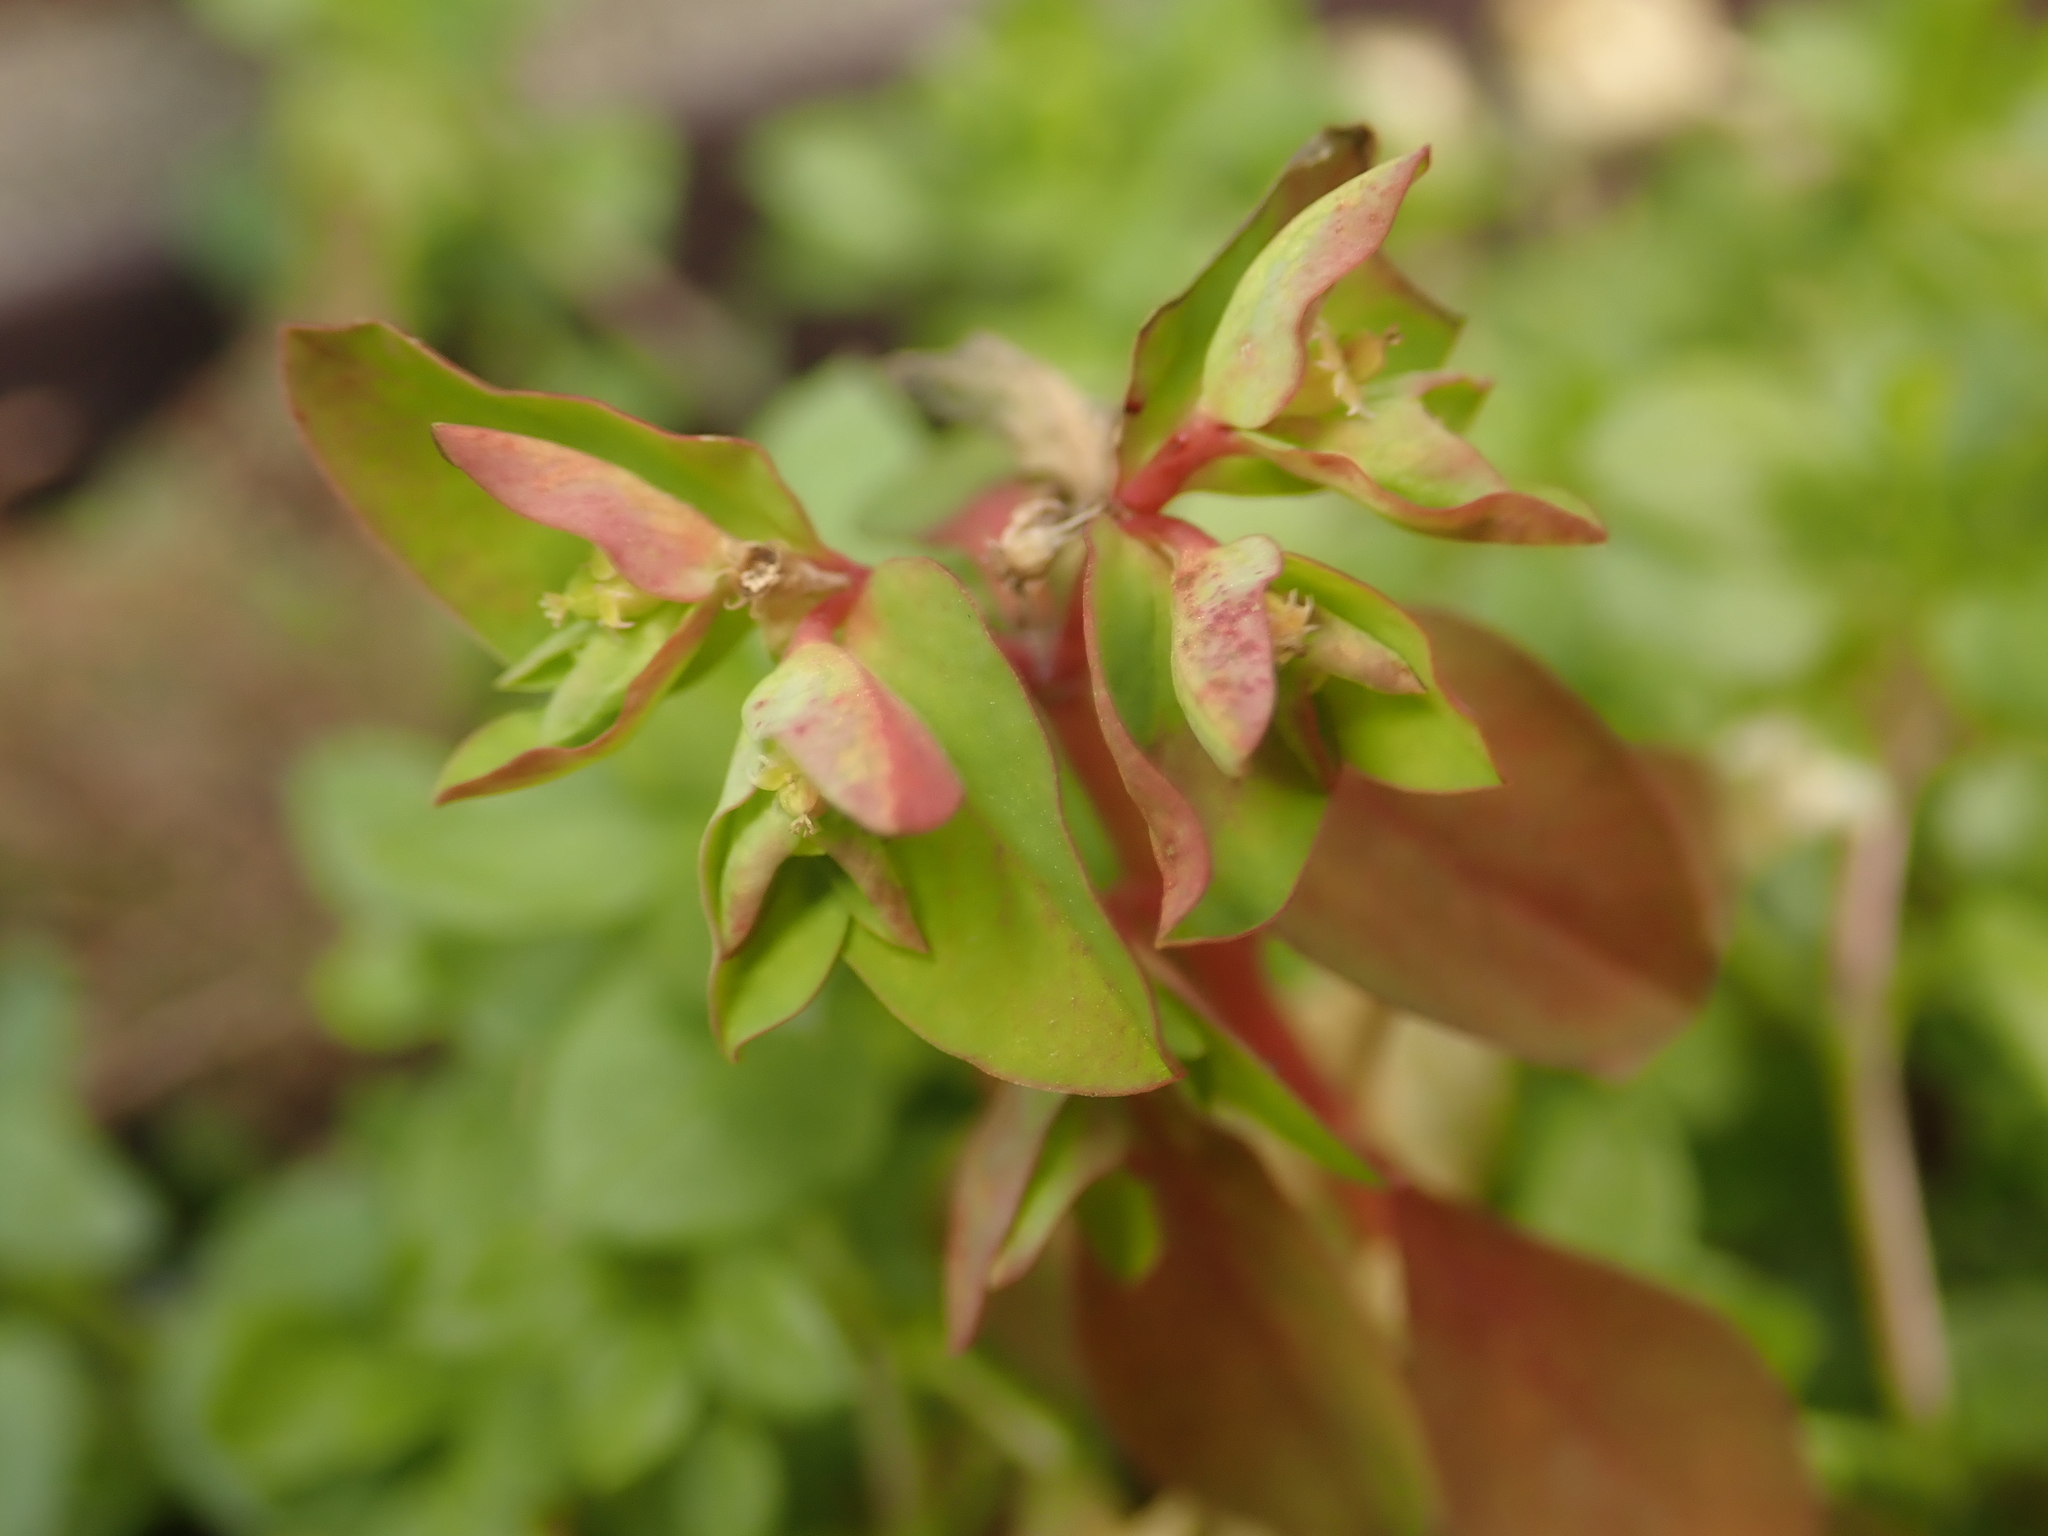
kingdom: Plantae
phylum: Tracheophyta
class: Magnoliopsida
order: Malpighiales
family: Euphorbiaceae
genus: Euphorbia
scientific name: Euphorbia peplus
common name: Petty spurge
